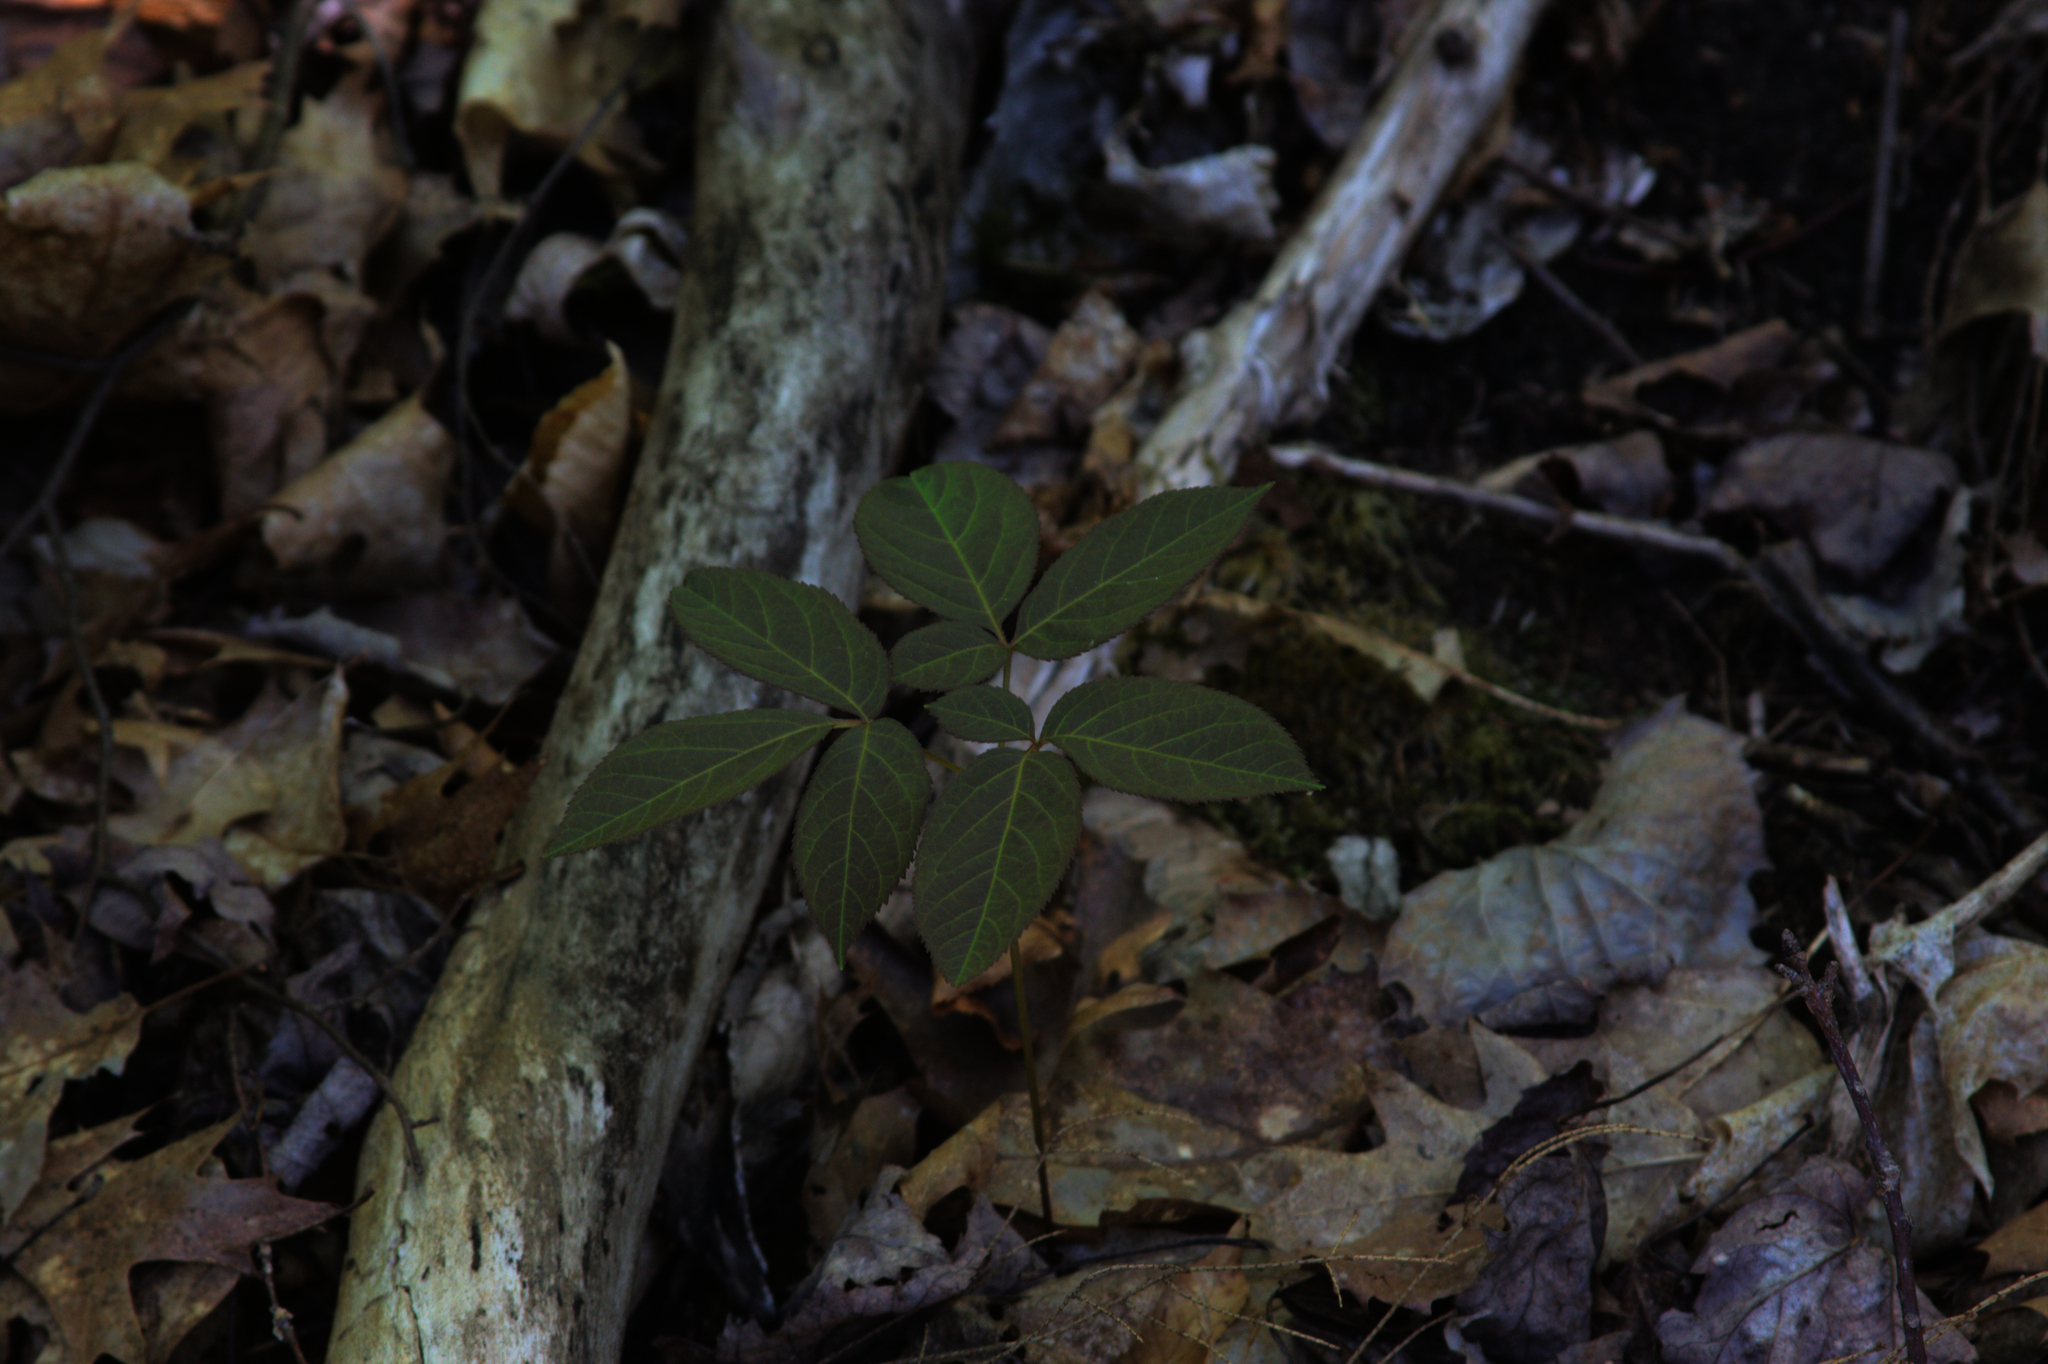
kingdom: Plantae
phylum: Tracheophyta
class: Magnoliopsida
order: Apiales
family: Araliaceae
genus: Aralia
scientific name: Aralia nudicaulis
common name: Wild sarsaparilla
